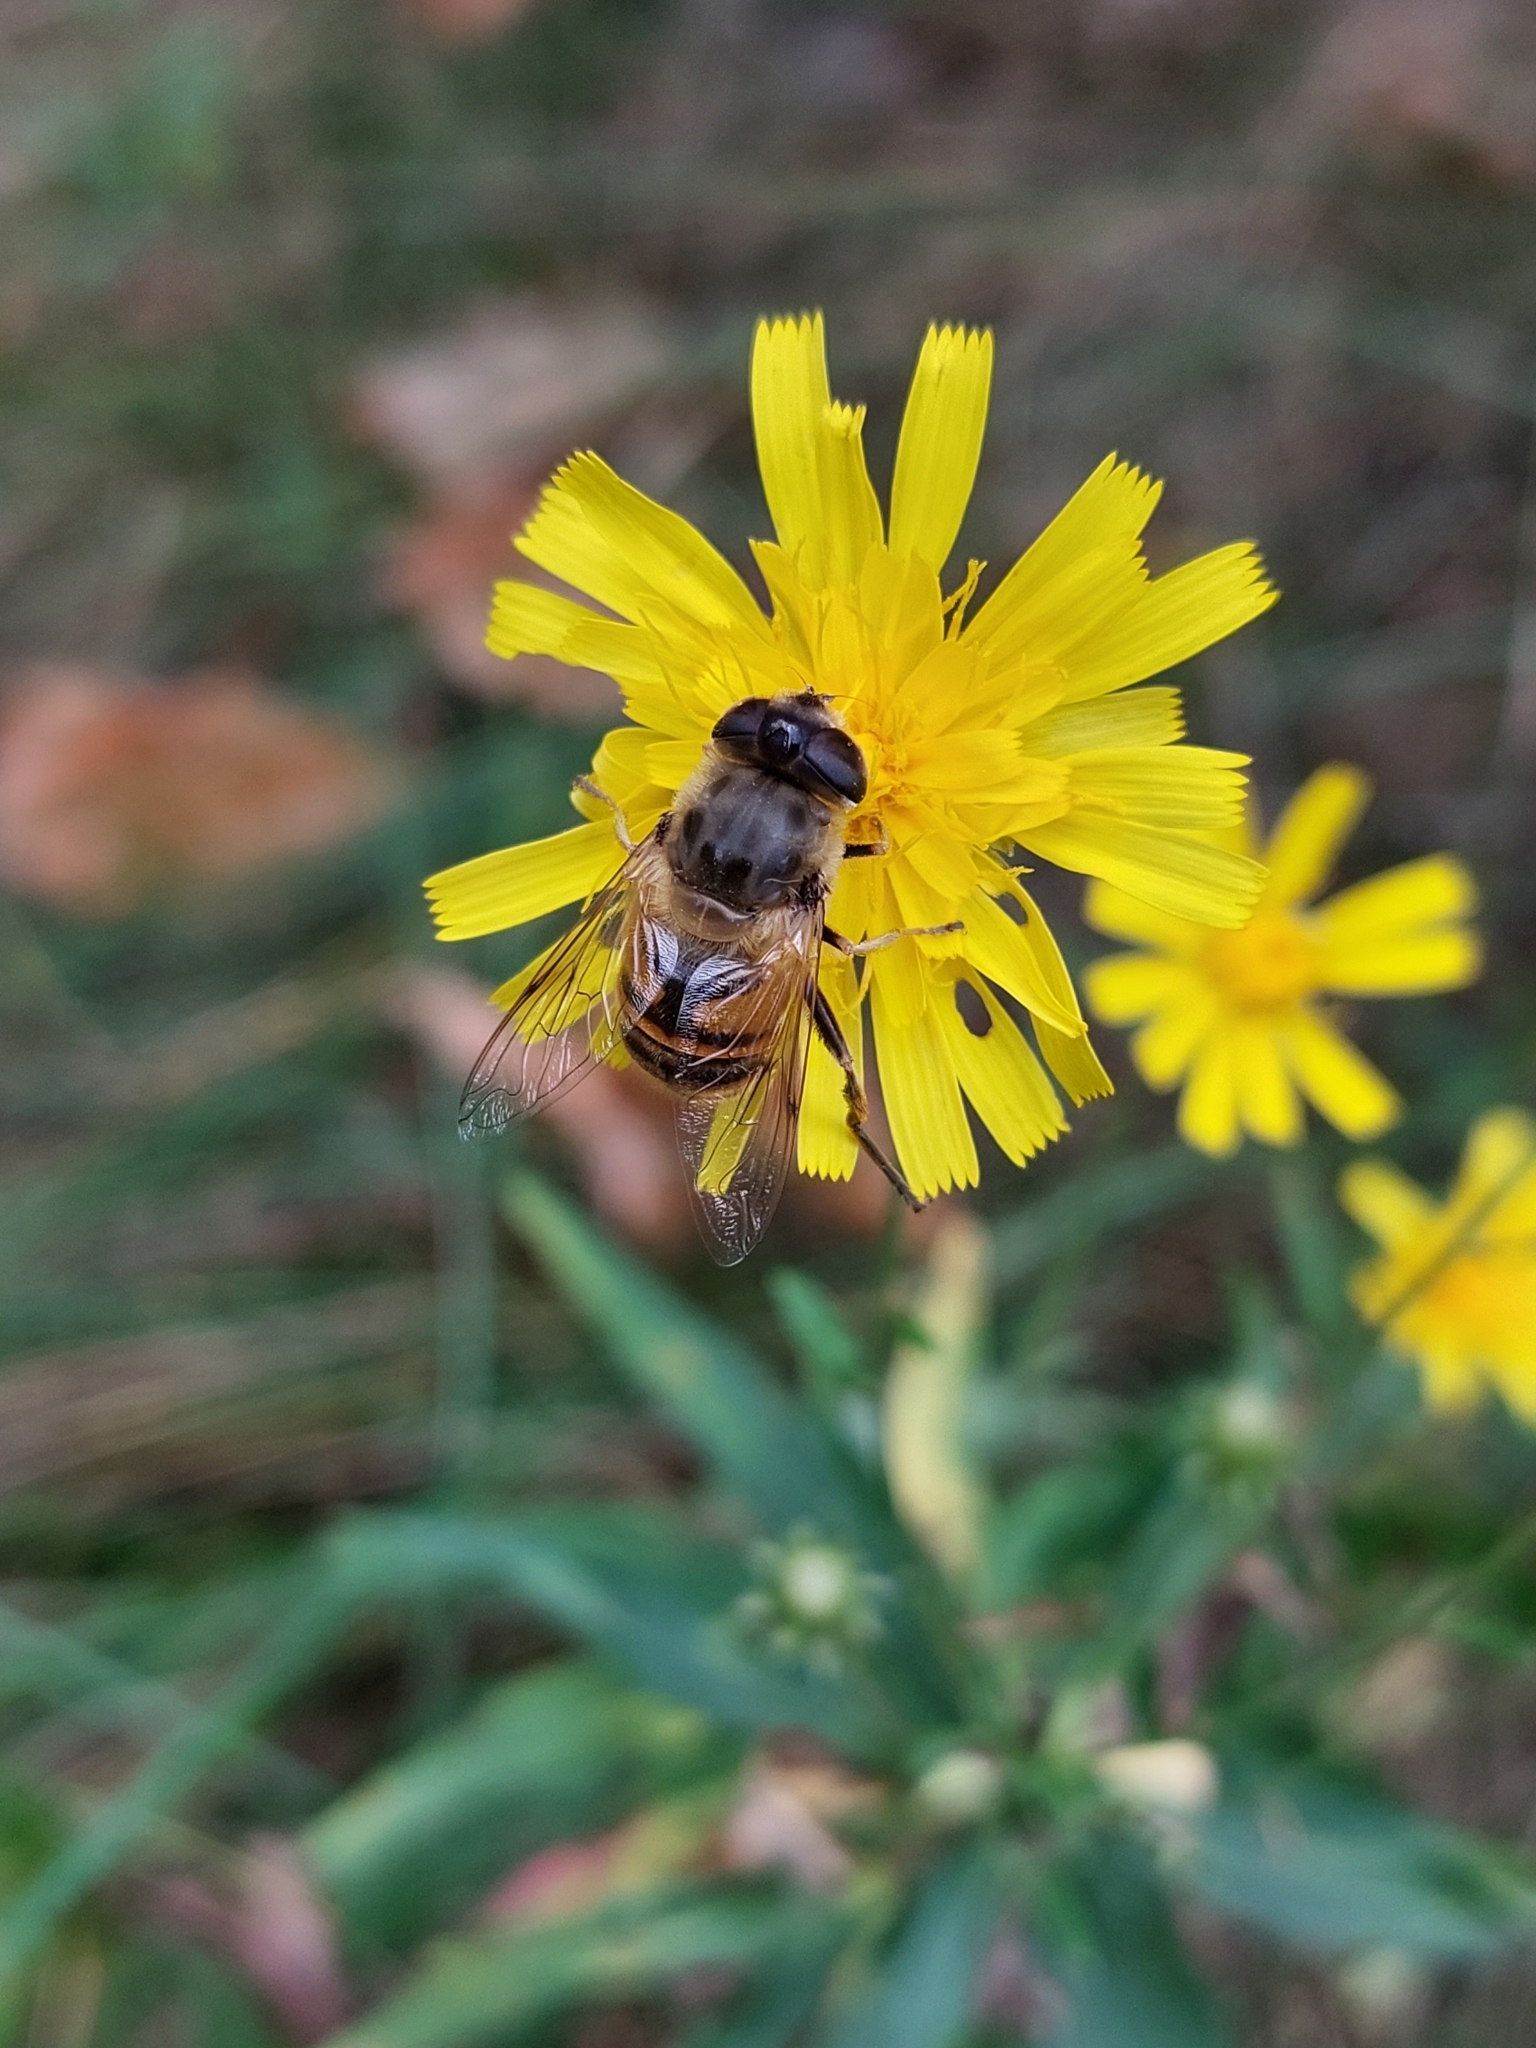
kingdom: Animalia
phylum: Arthropoda
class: Insecta
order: Diptera
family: Syrphidae
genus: Eristalis
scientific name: Eristalis tenax
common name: Drone fly
